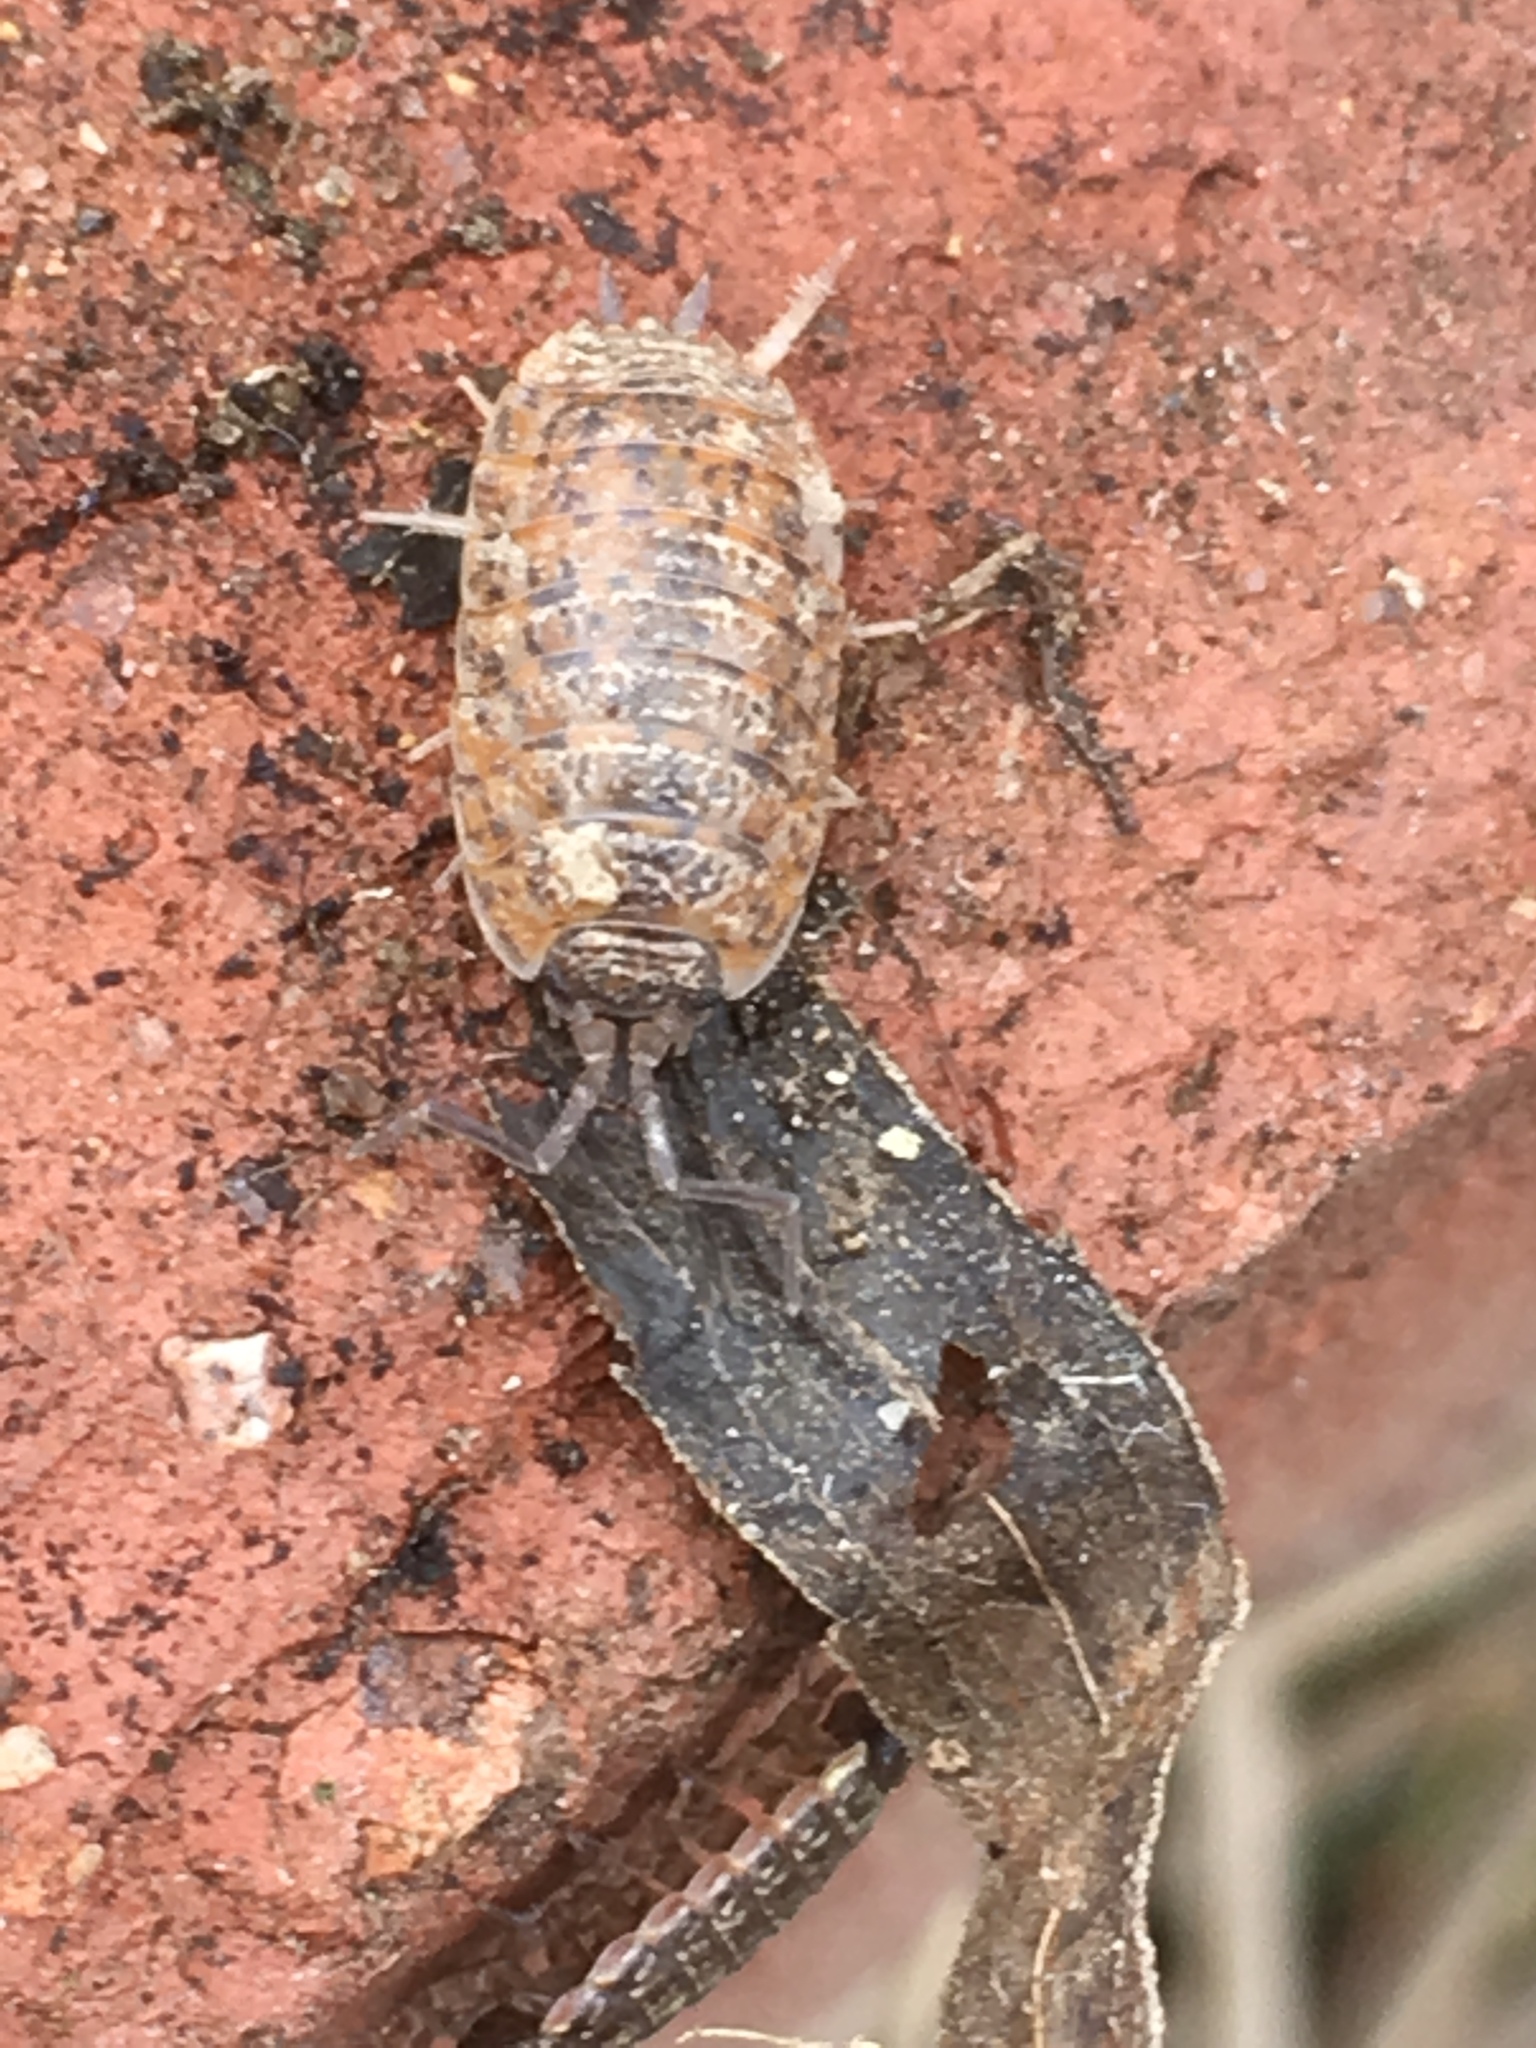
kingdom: Animalia
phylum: Arthropoda
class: Malacostraca
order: Isopoda
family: Trachelipodidae
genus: Trachelipus
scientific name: Trachelipus rathkii
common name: Isopod
